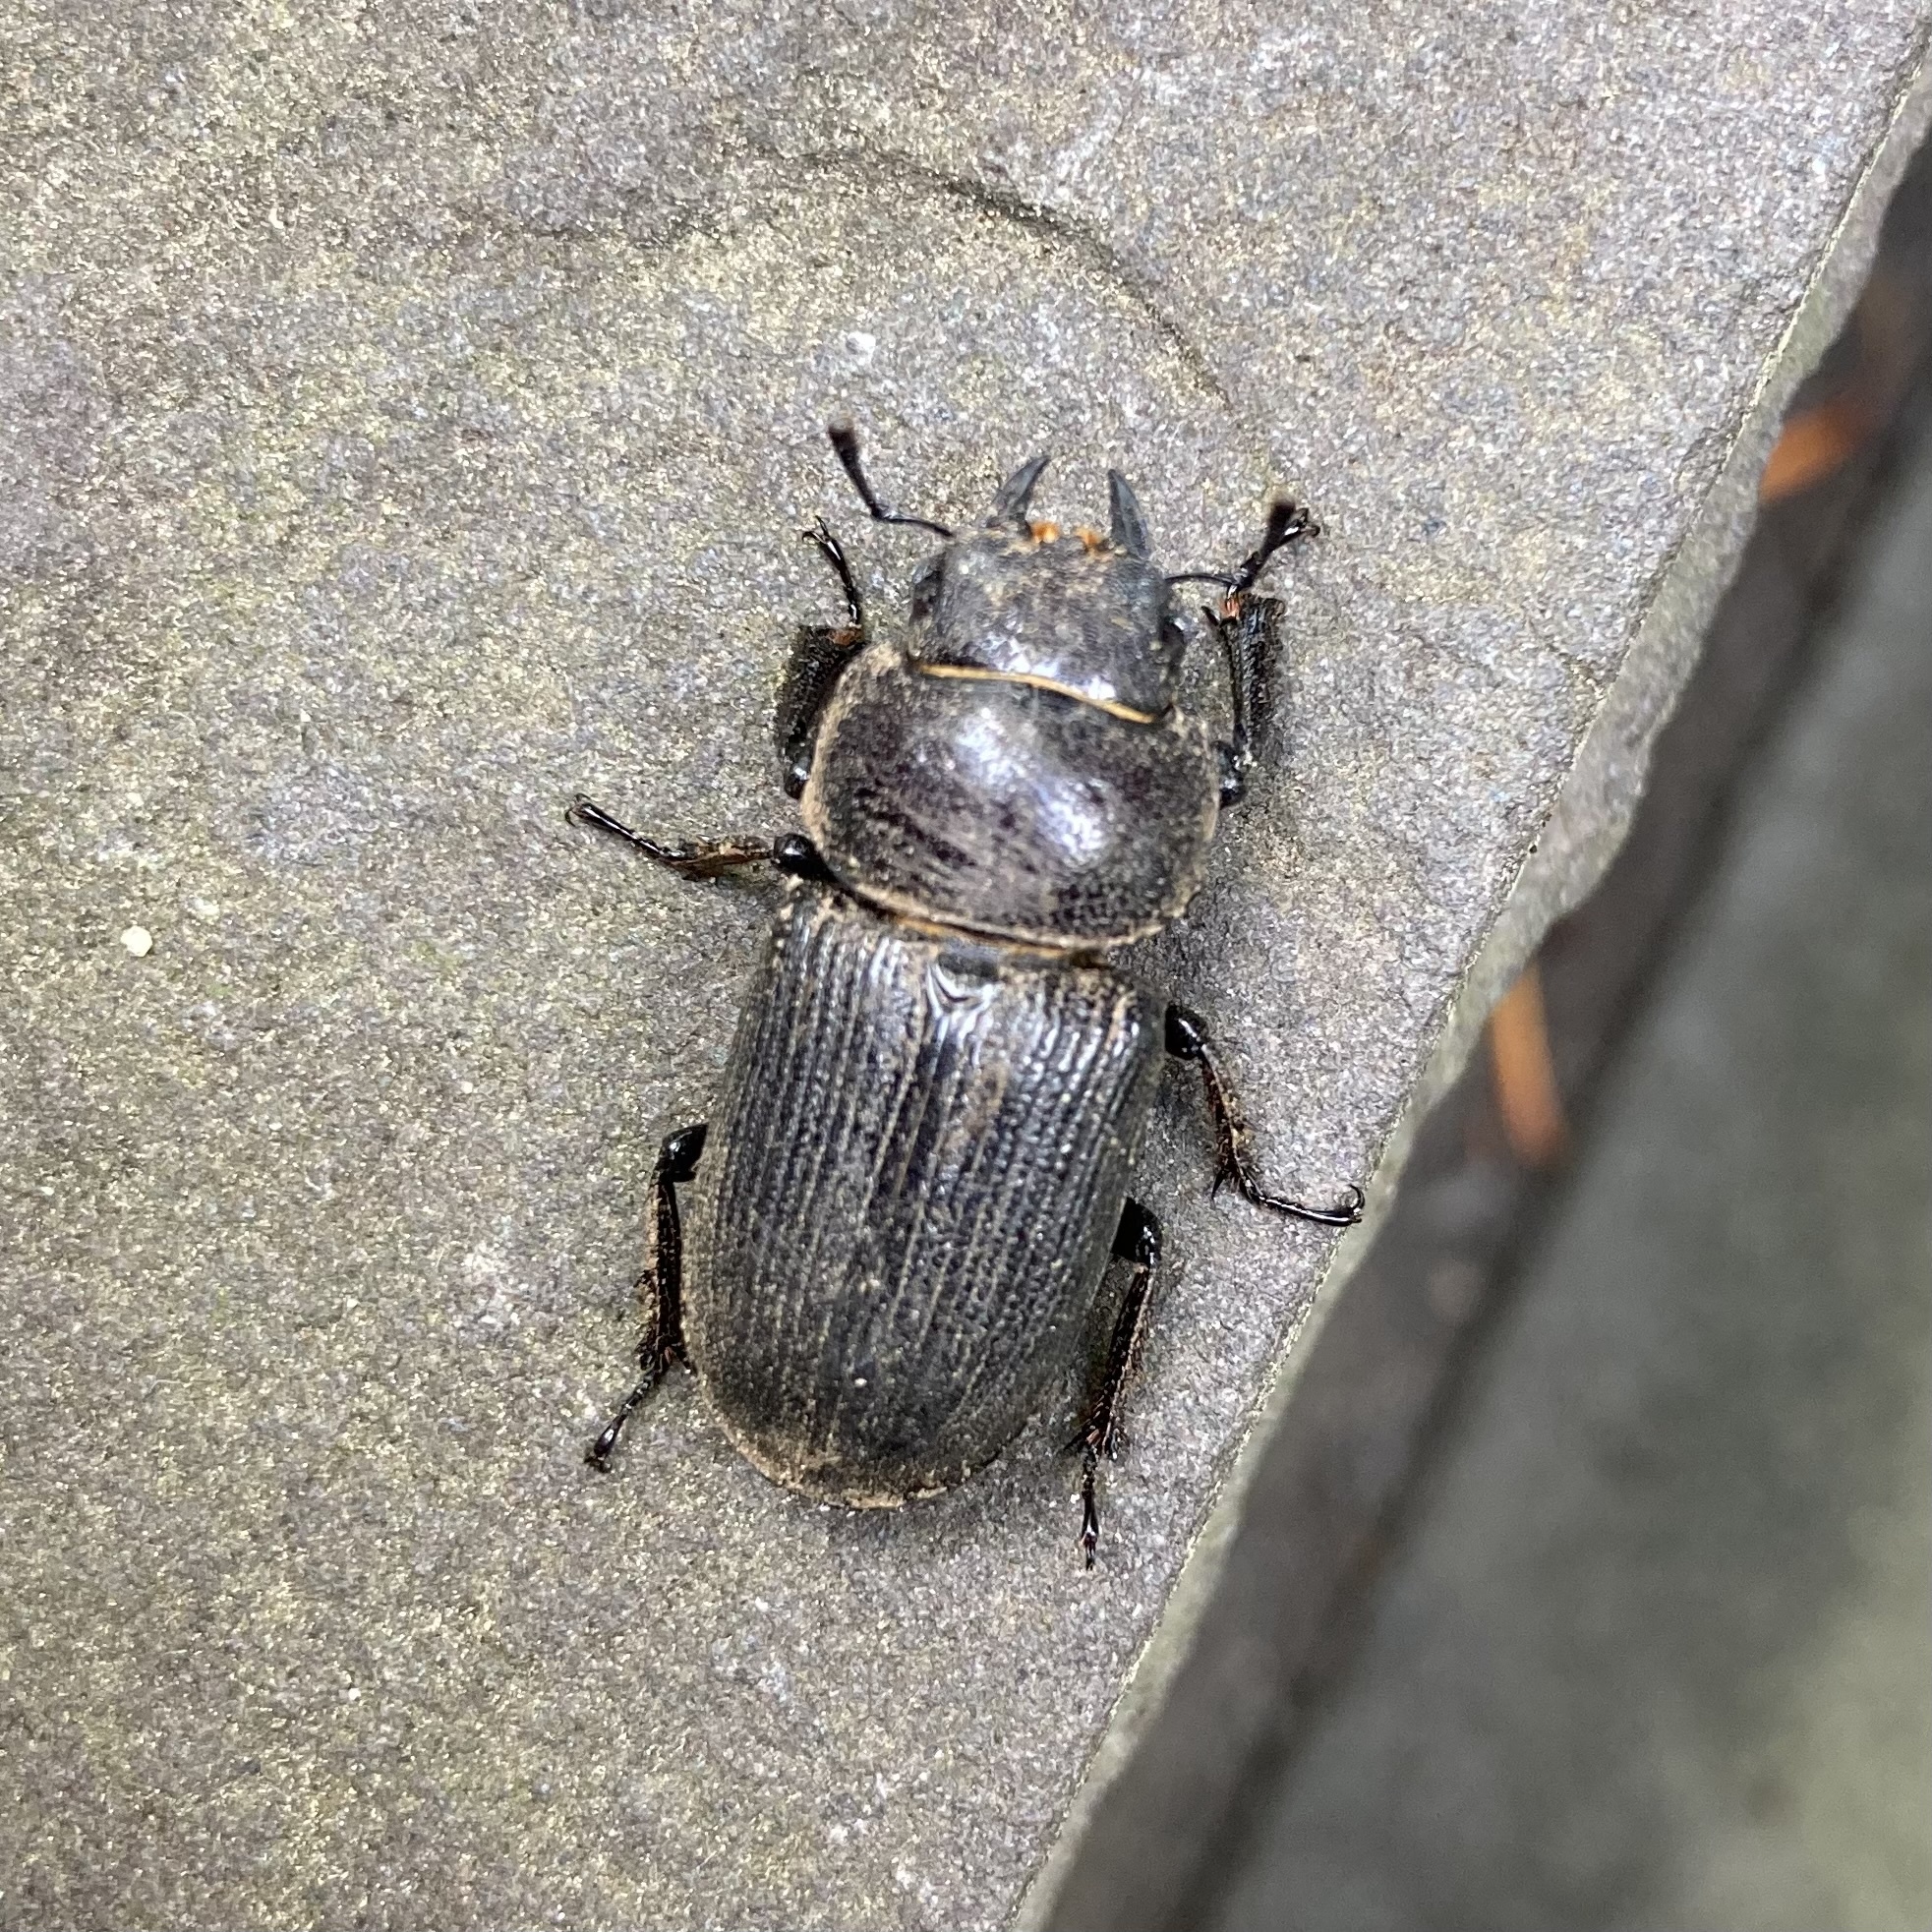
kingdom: Animalia
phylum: Arthropoda
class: Insecta
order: Coleoptera
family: Lucanidae
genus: Dorcus
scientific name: Dorcus parallelus
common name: Antelope beetle
